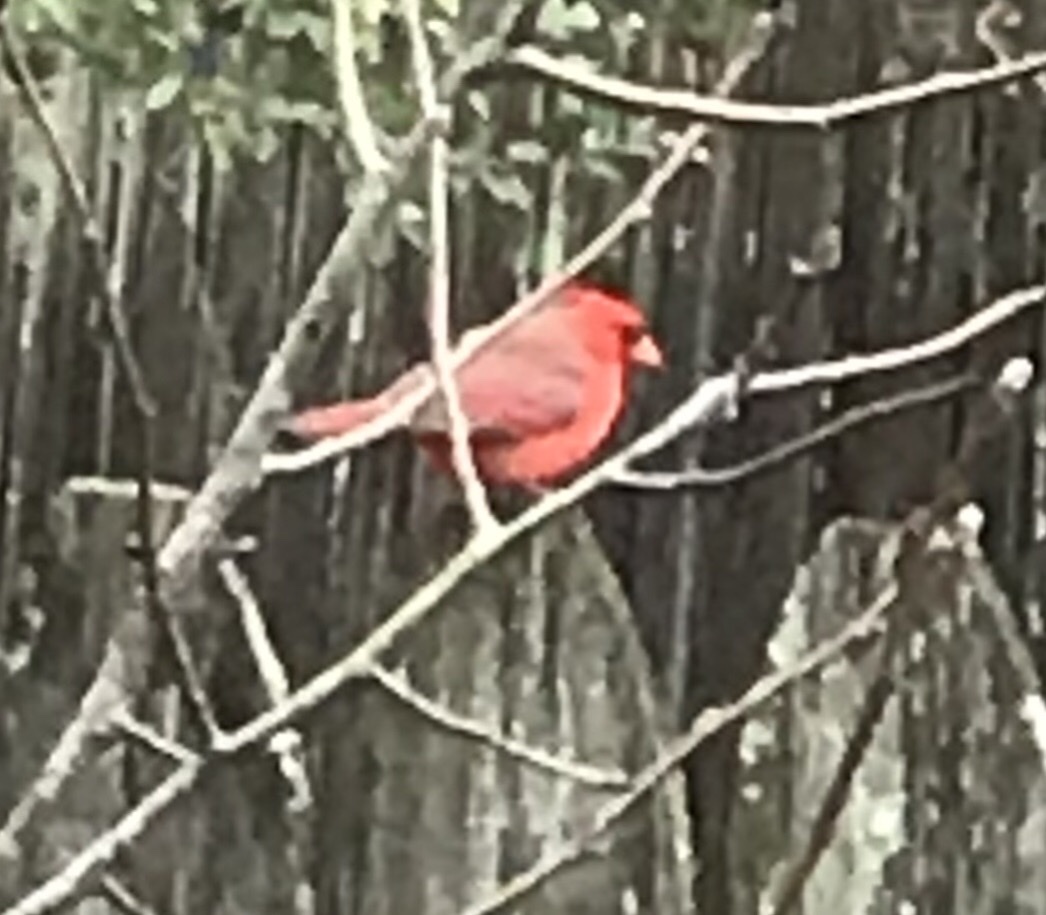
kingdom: Animalia
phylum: Chordata
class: Aves
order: Passeriformes
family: Cardinalidae
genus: Cardinalis
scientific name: Cardinalis cardinalis
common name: Northern cardinal
